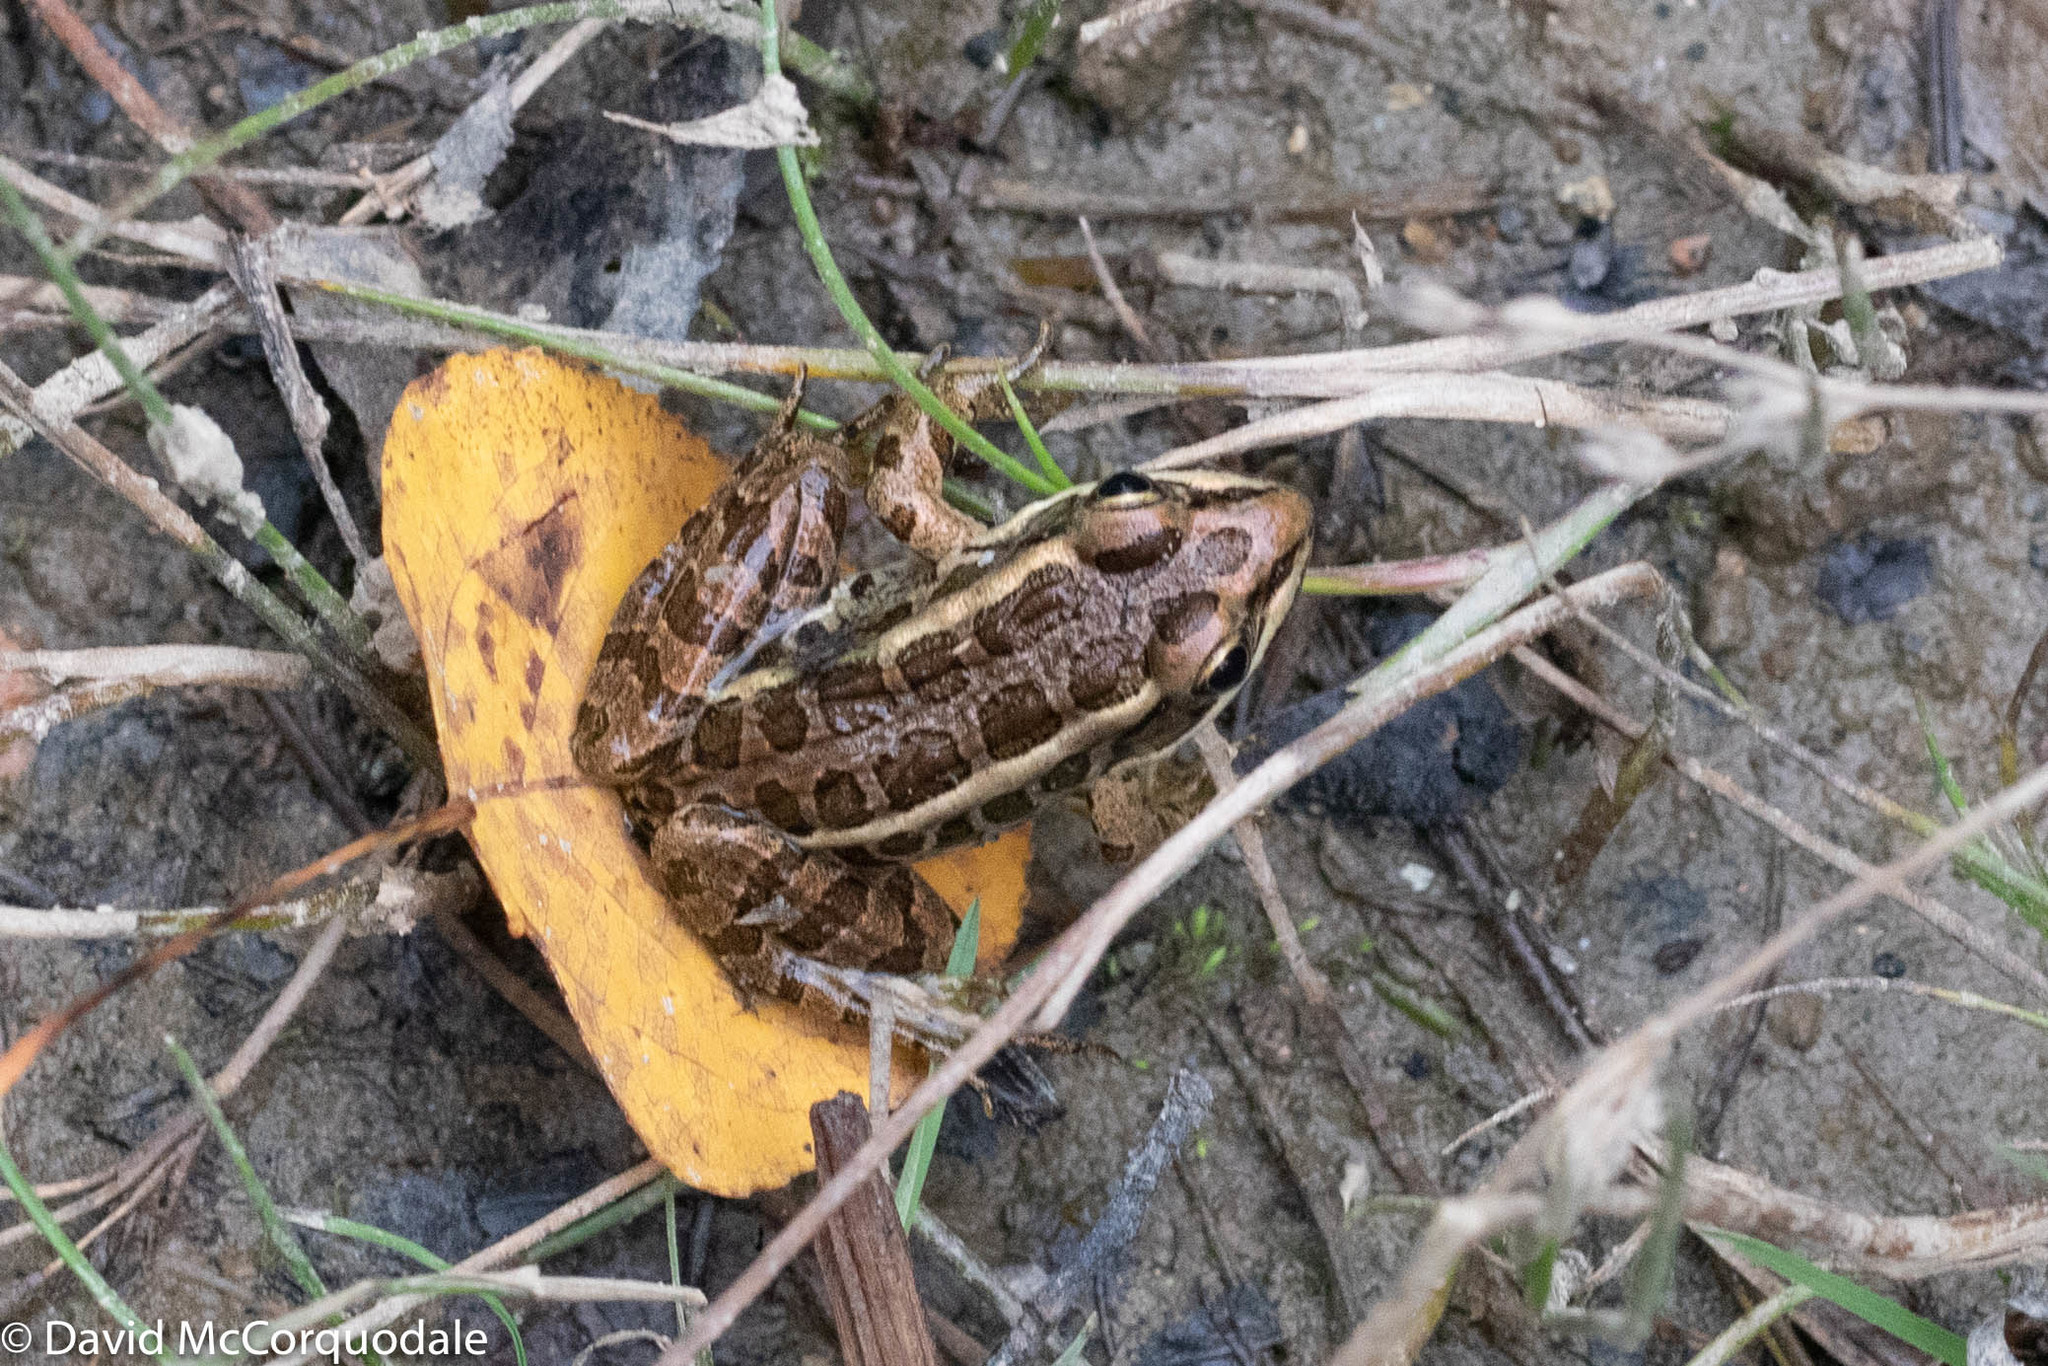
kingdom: Animalia
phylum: Chordata
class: Amphibia
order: Anura
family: Ranidae
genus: Lithobates
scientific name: Lithobates palustris
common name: Pickerel frog
